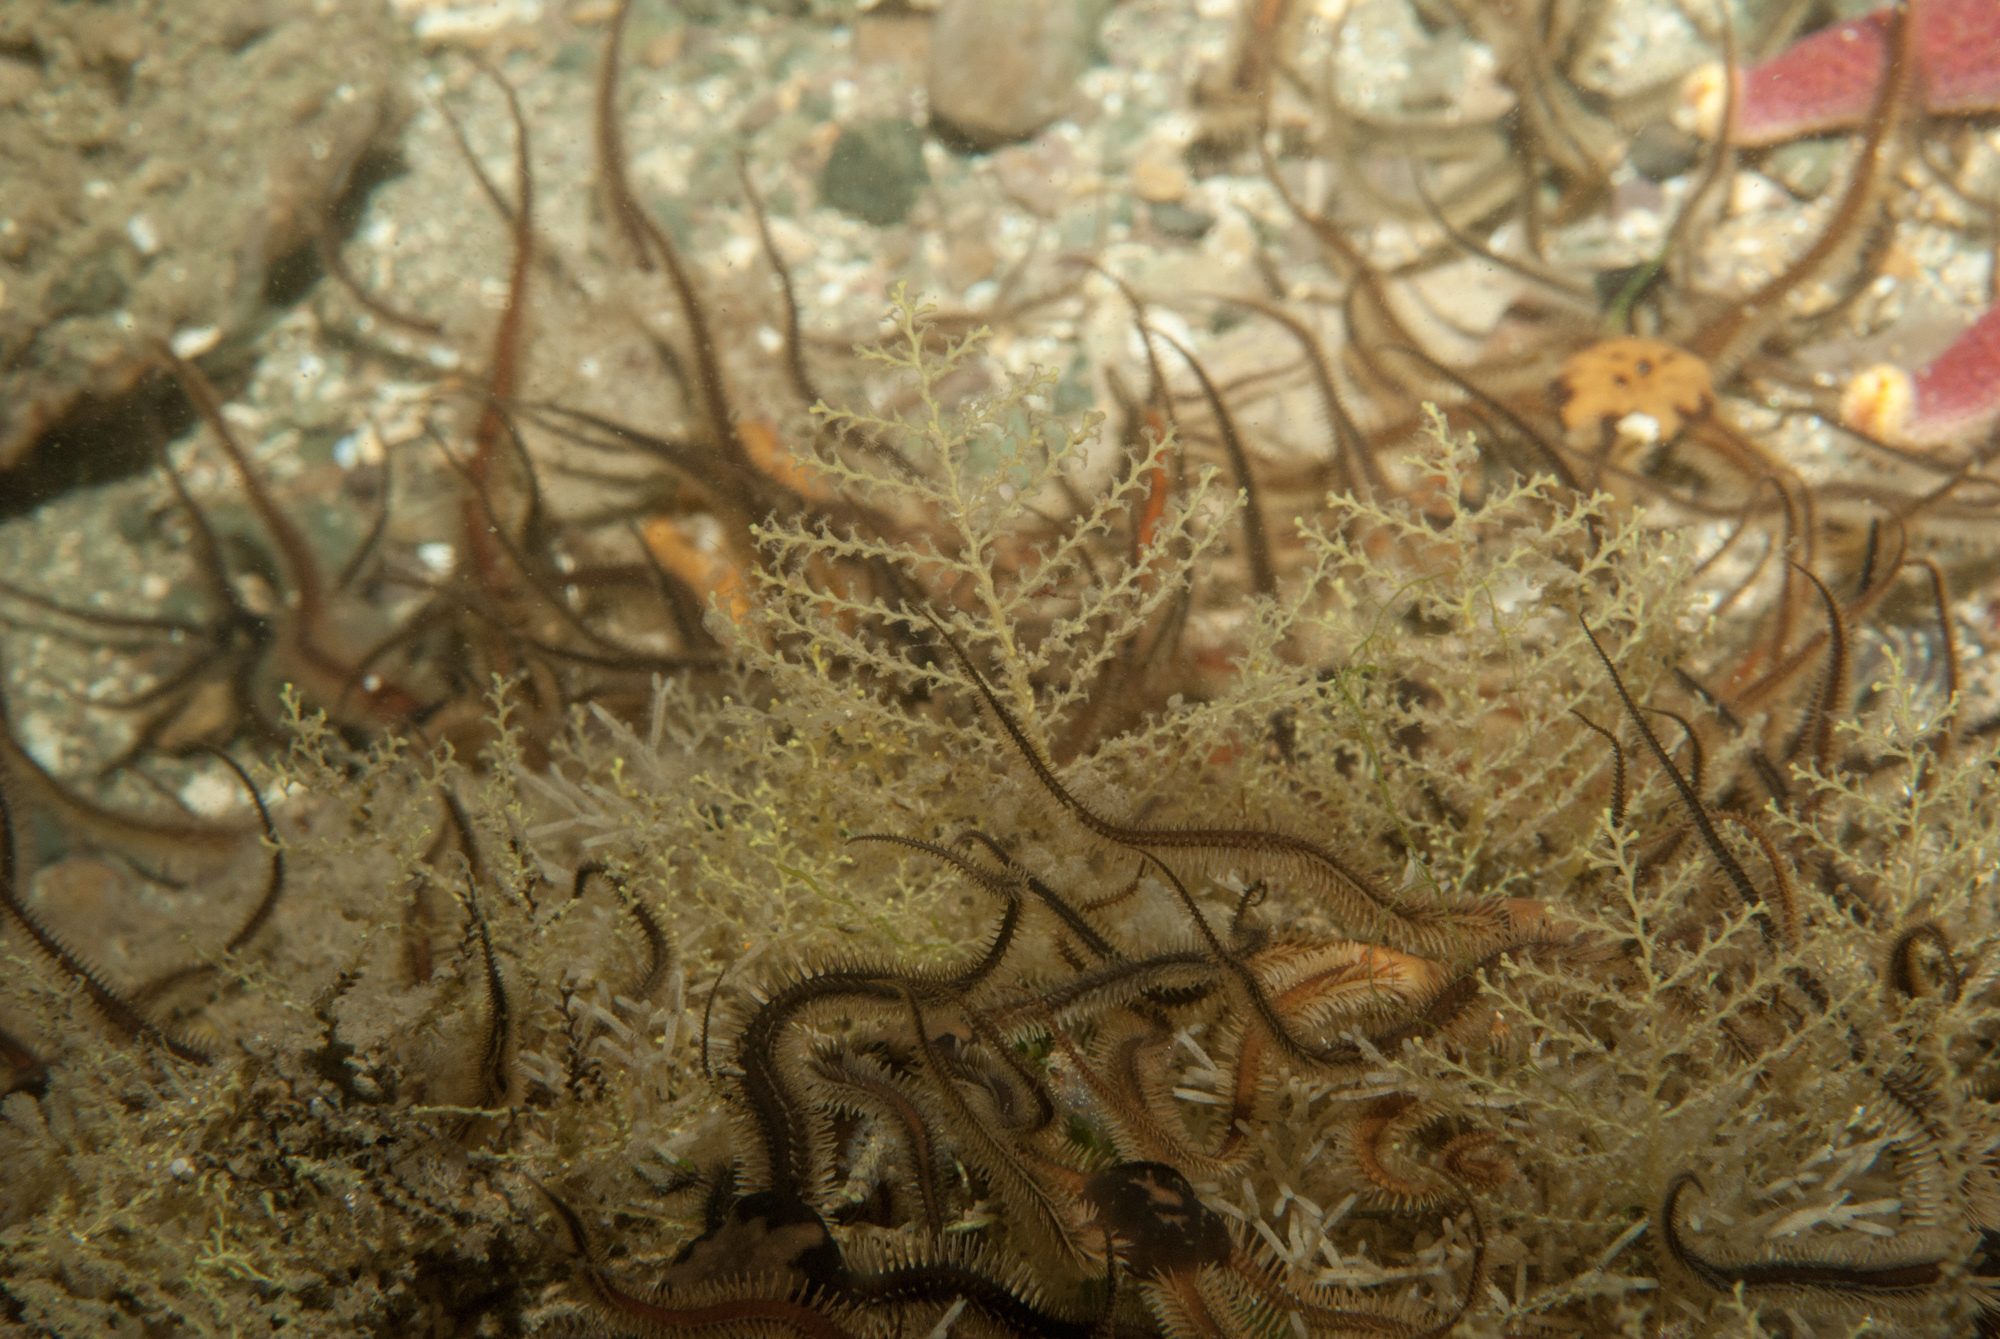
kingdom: Animalia
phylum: Cnidaria
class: Hydrozoa
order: Leptothecata
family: Sertularellidae
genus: Sertularella
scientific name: Sertularella gayi
